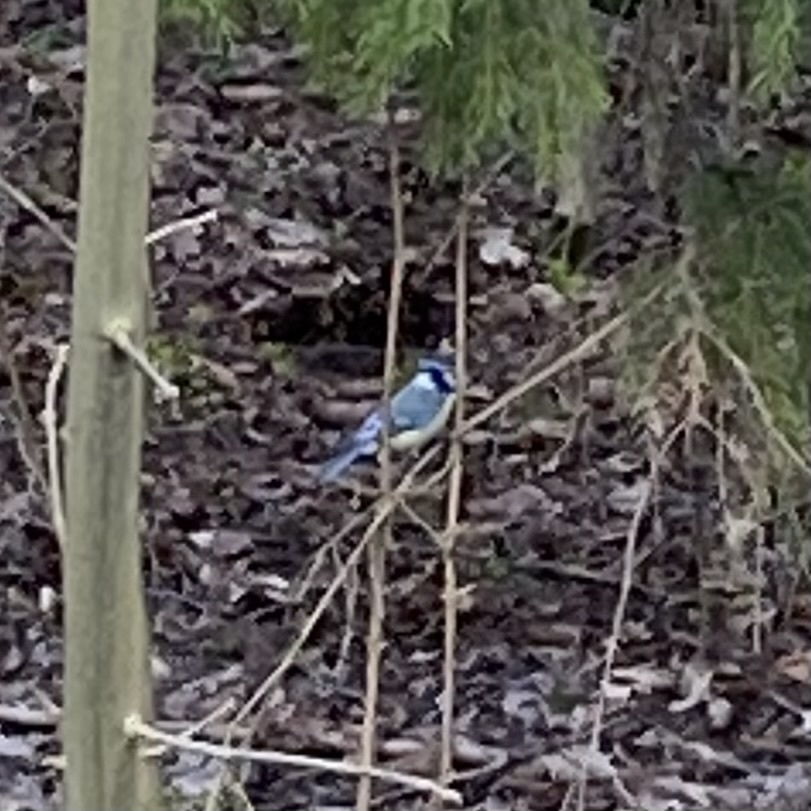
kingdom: Animalia
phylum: Chordata
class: Aves
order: Passeriformes
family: Paridae
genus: Cyanistes
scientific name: Cyanistes caeruleus
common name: Eurasian blue tit
